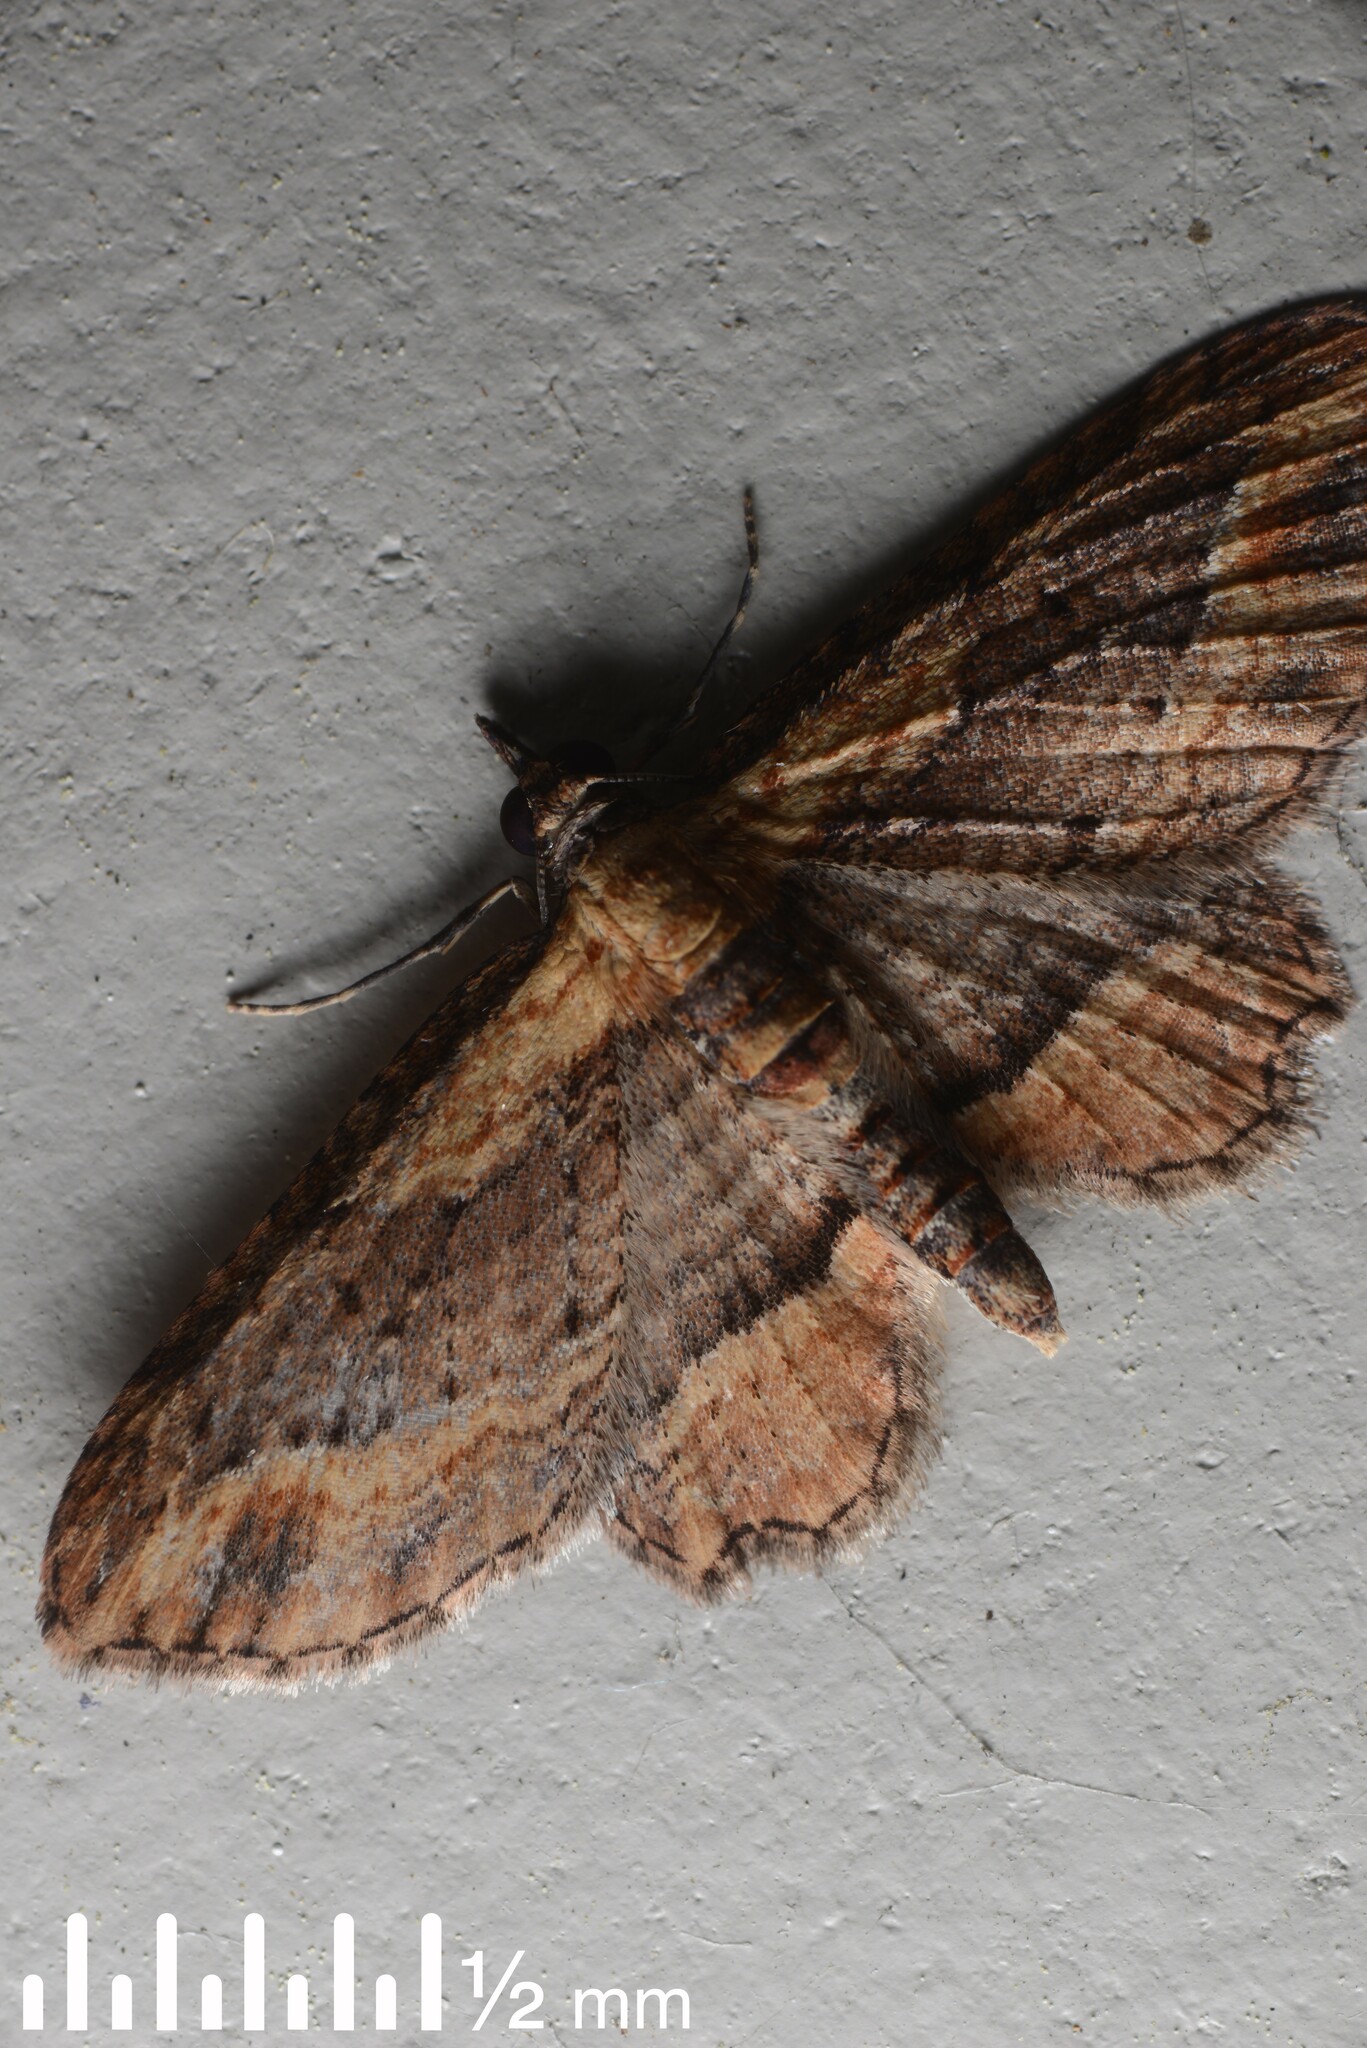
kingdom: Animalia
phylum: Arthropoda
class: Insecta
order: Lepidoptera
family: Geometridae
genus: Chloroclystis
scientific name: Chloroclystis filata
